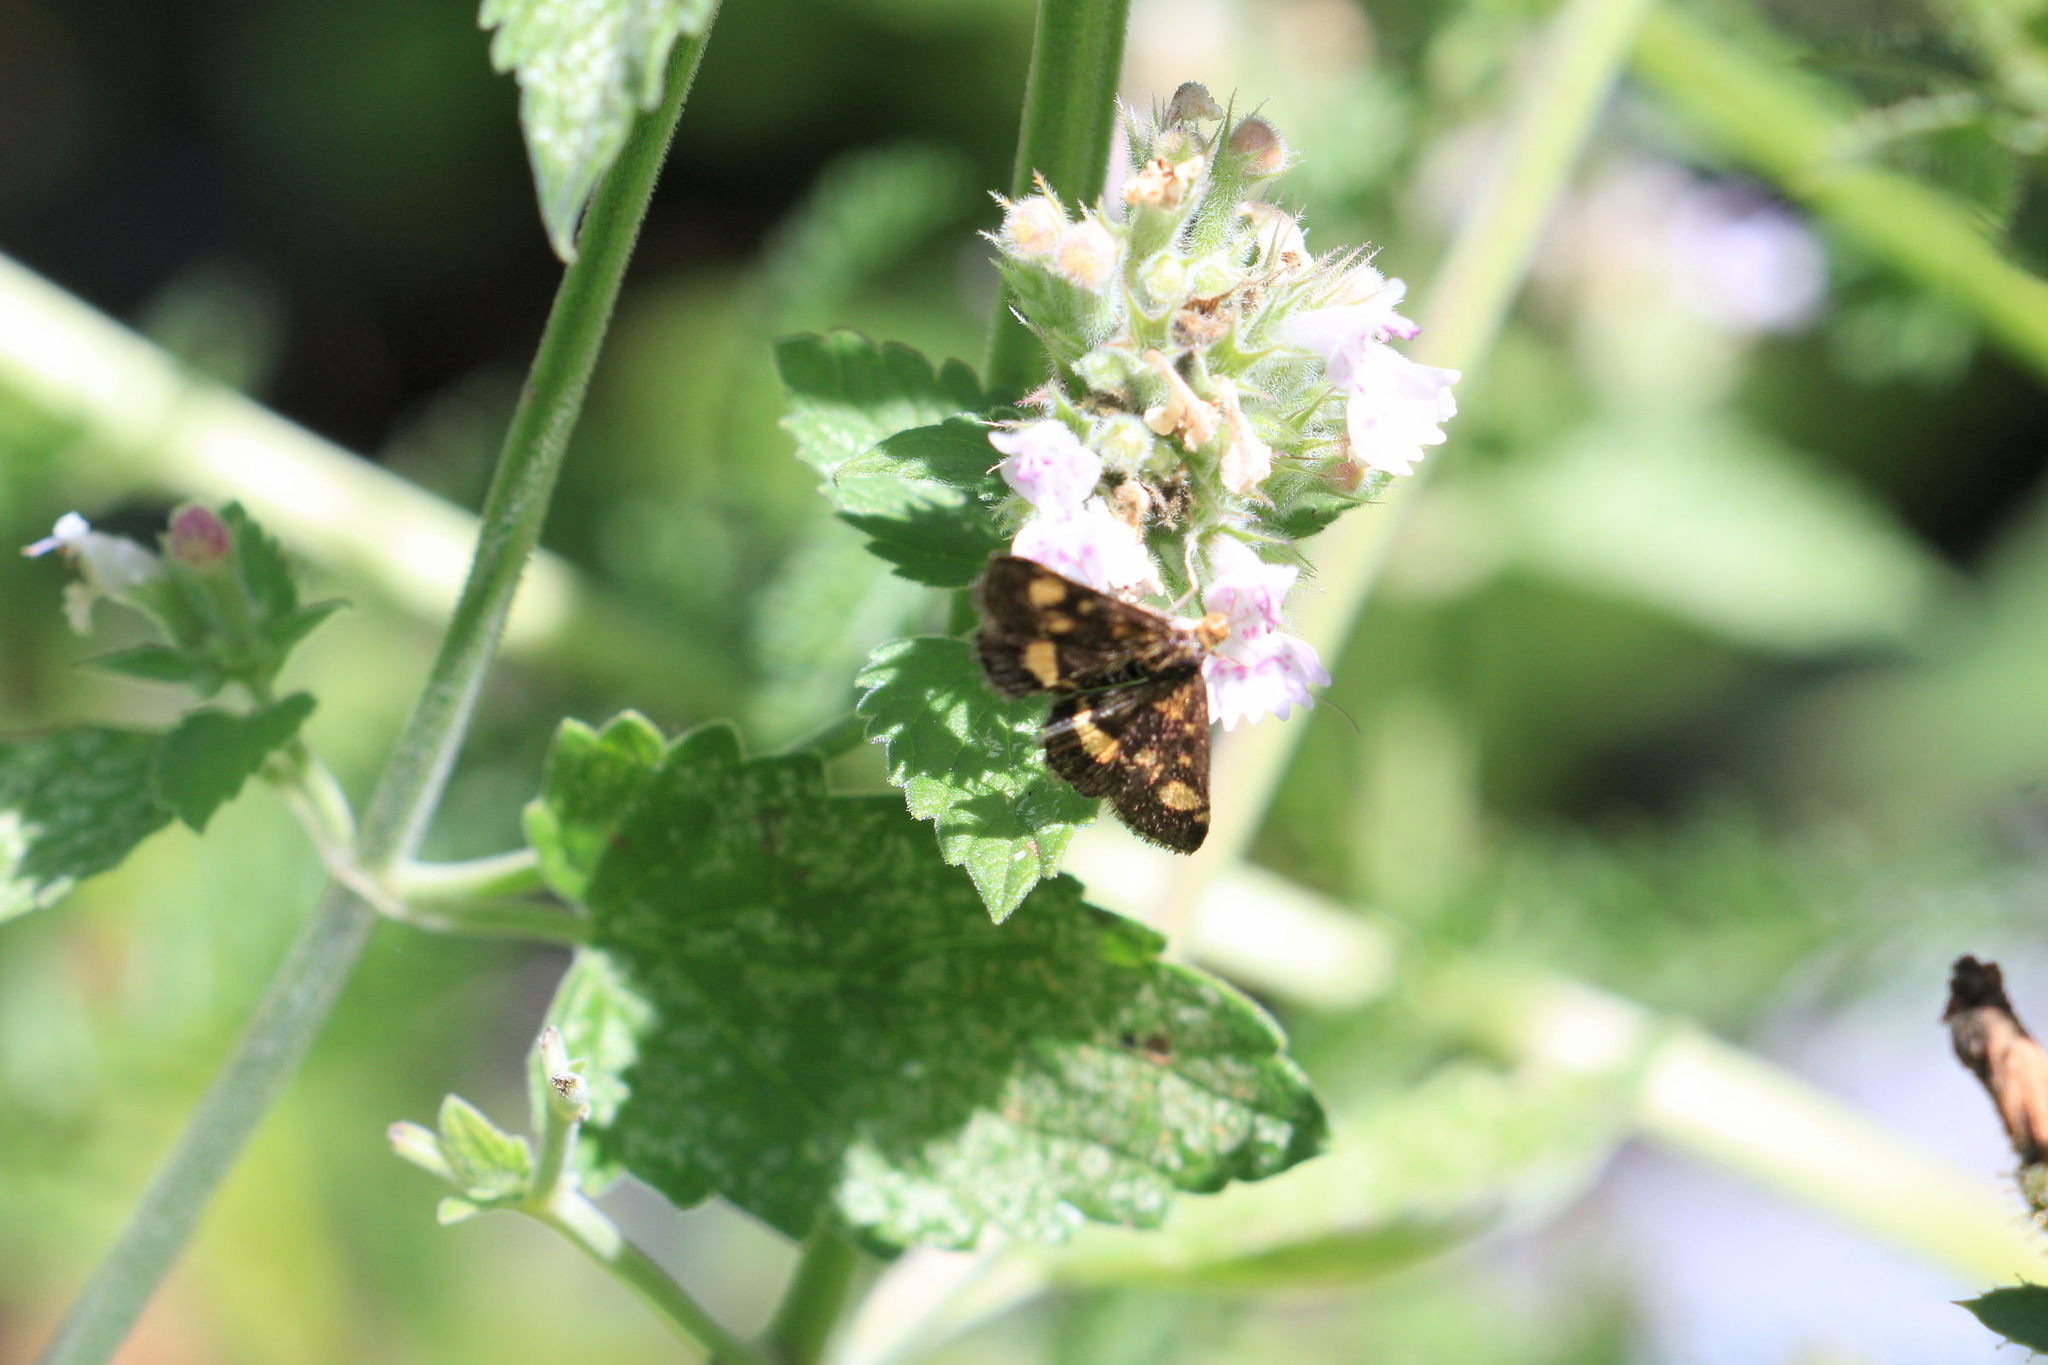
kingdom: Animalia
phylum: Arthropoda
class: Insecta
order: Lepidoptera
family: Crambidae
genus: Pyrausta
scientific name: Pyrausta aurata
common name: Small purple & gold
